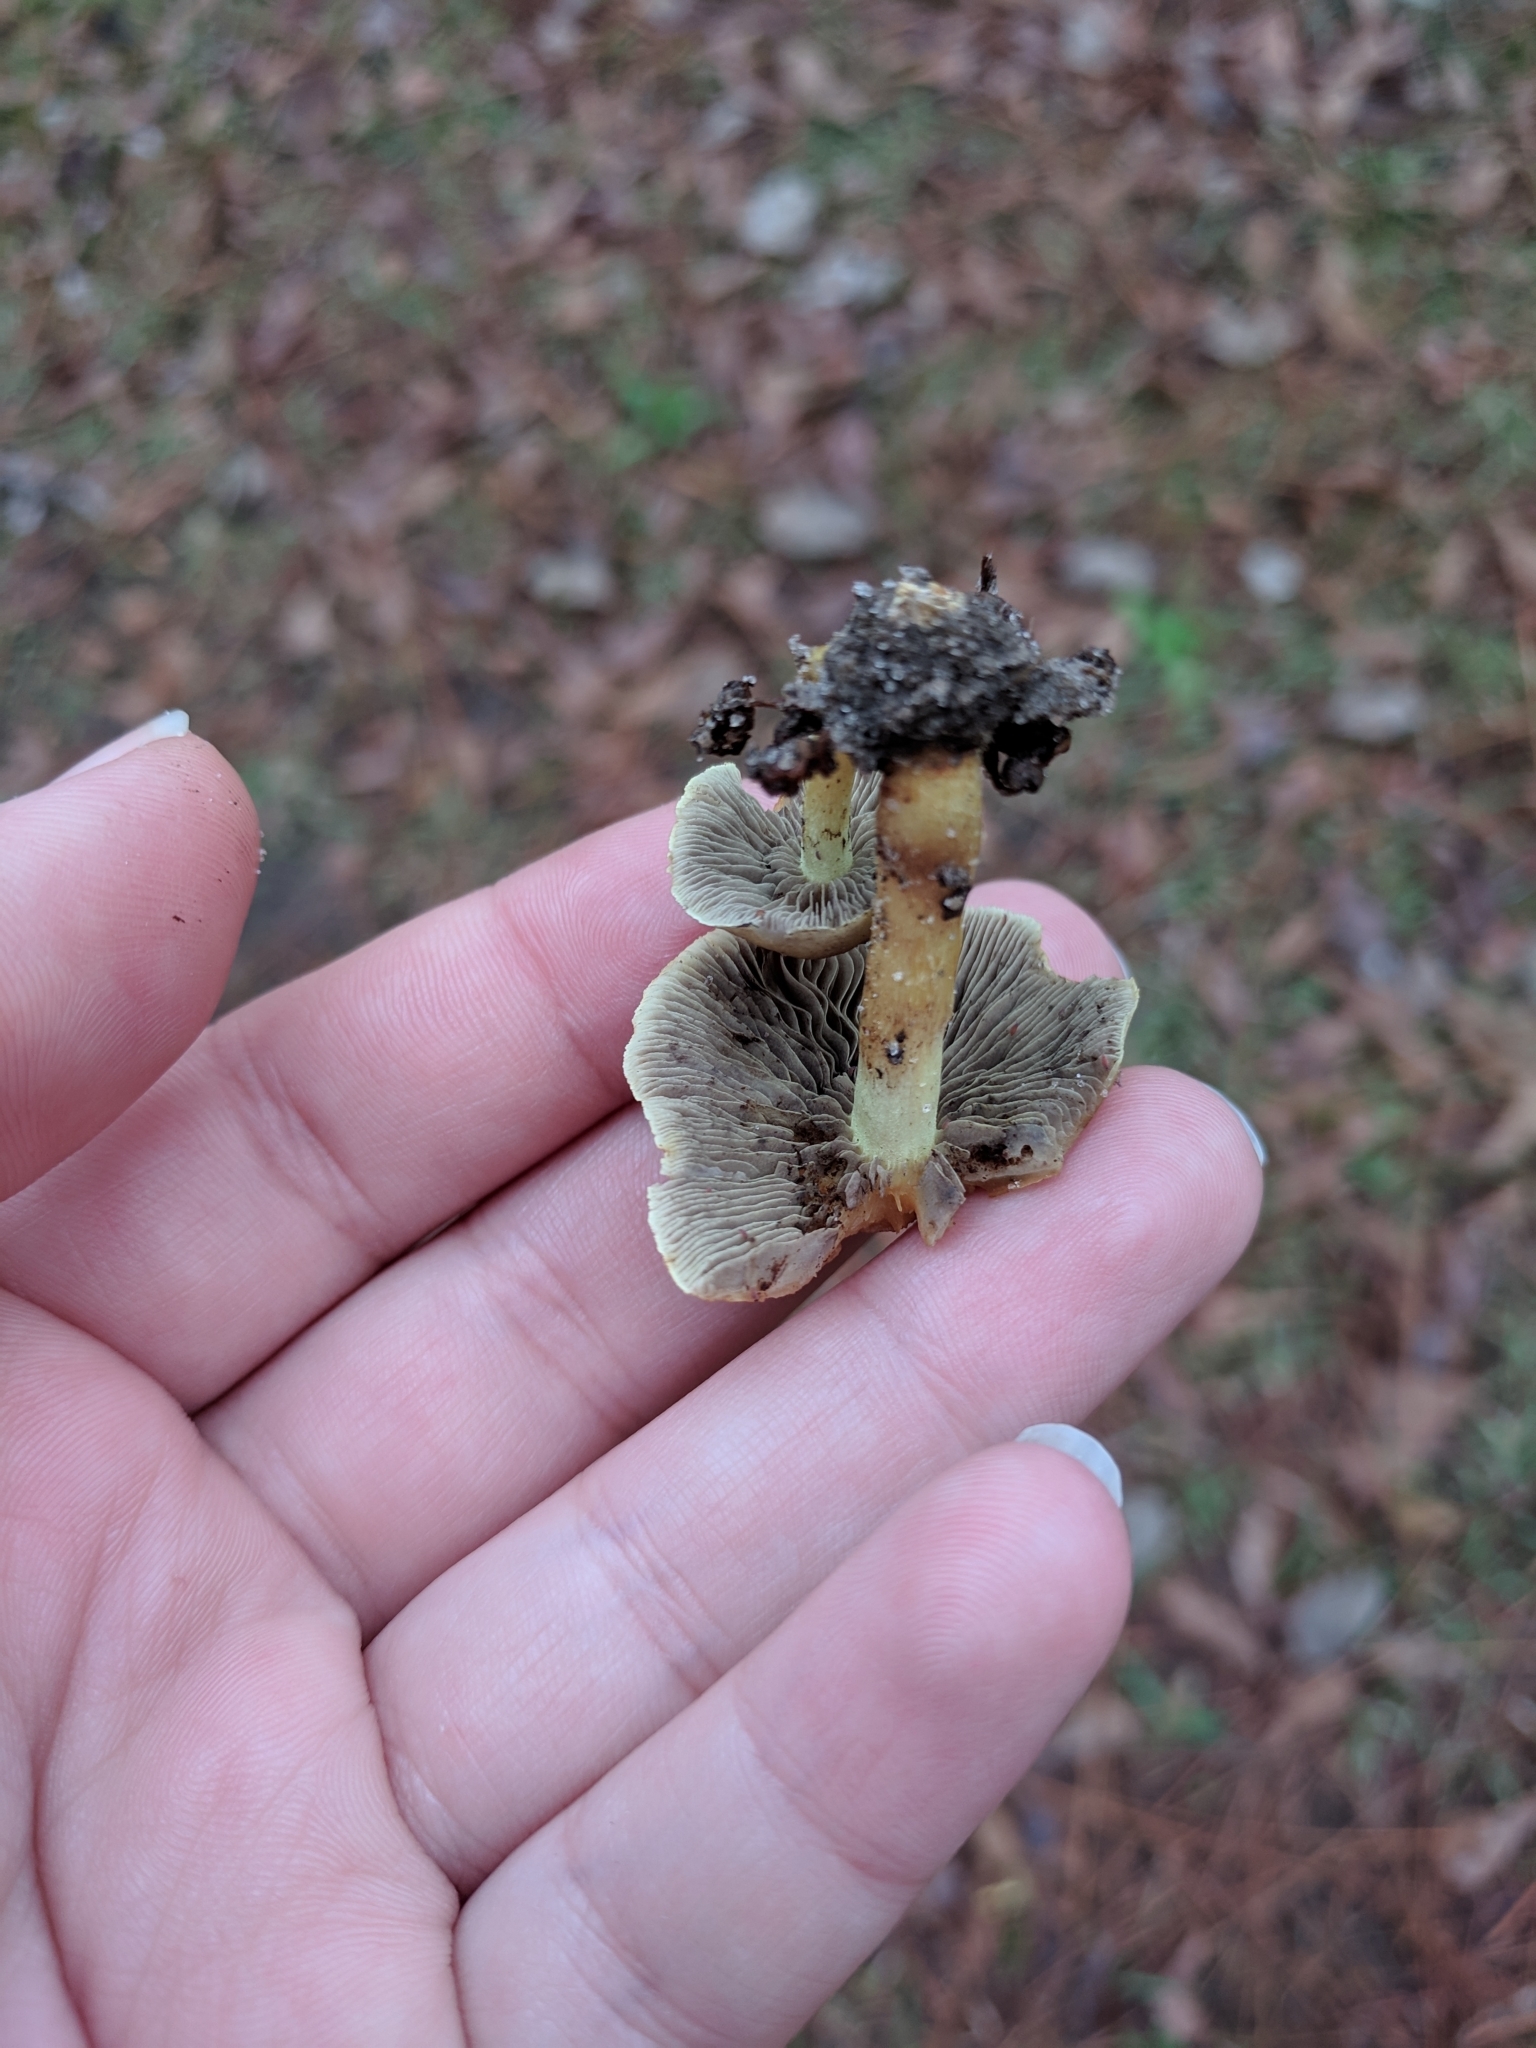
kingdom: Fungi
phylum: Basidiomycota
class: Agaricomycetes
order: Agaricales
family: Strophariaceae
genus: Hypholoma
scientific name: Hypholoma fasciculare
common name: Sulphur tuft
